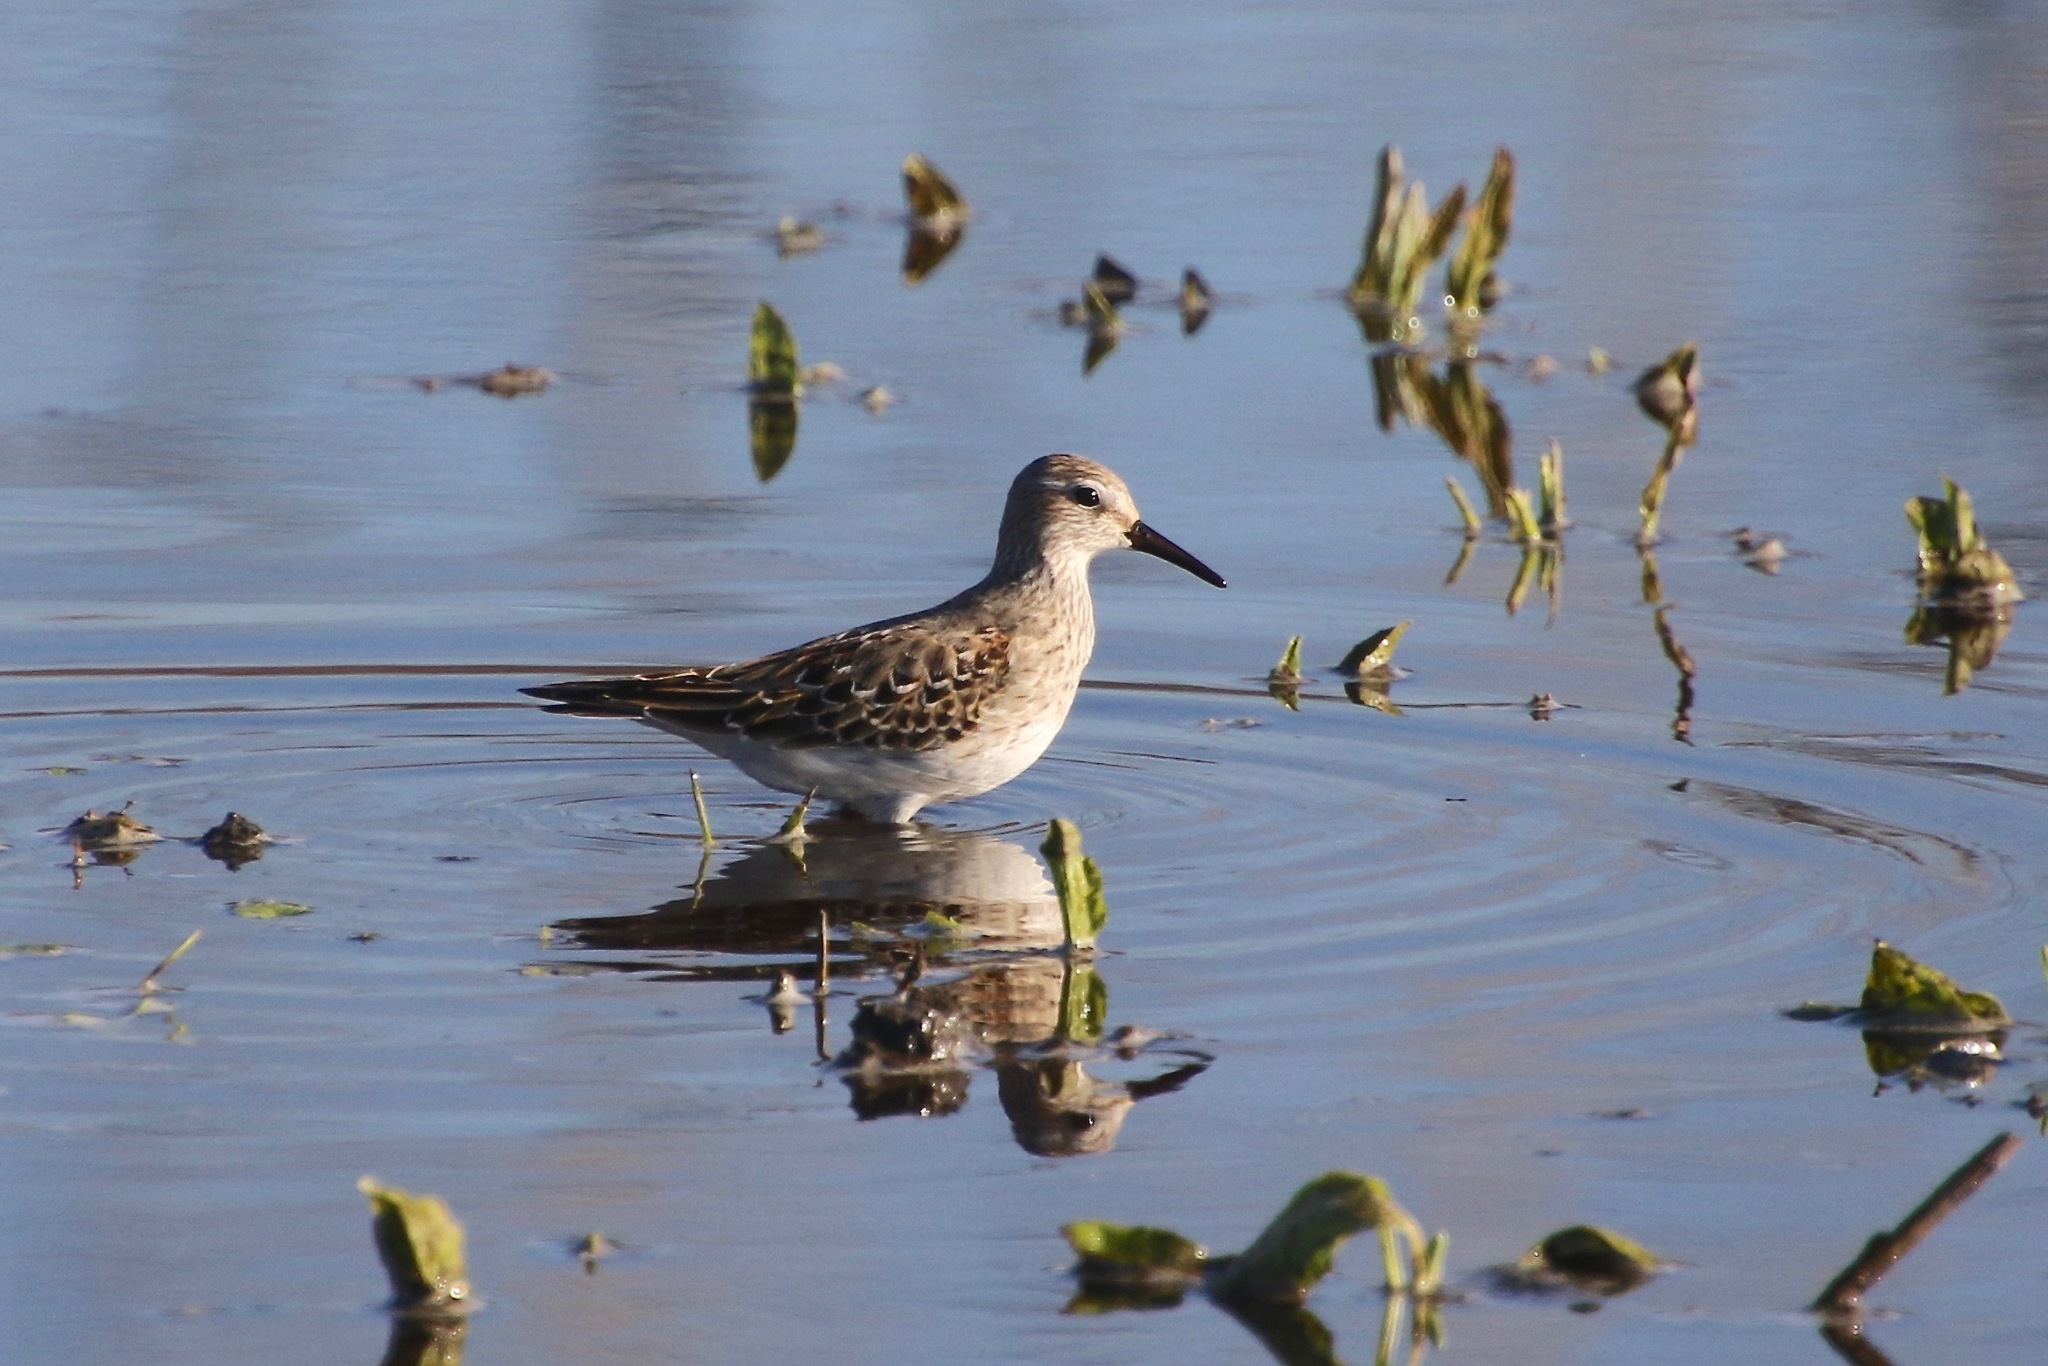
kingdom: Animalia
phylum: Chordata
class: Aves
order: Charadriiformes
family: Scolopacidae
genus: Calidris
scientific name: Calidris fuscicollis
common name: White-rumped sandpiper
